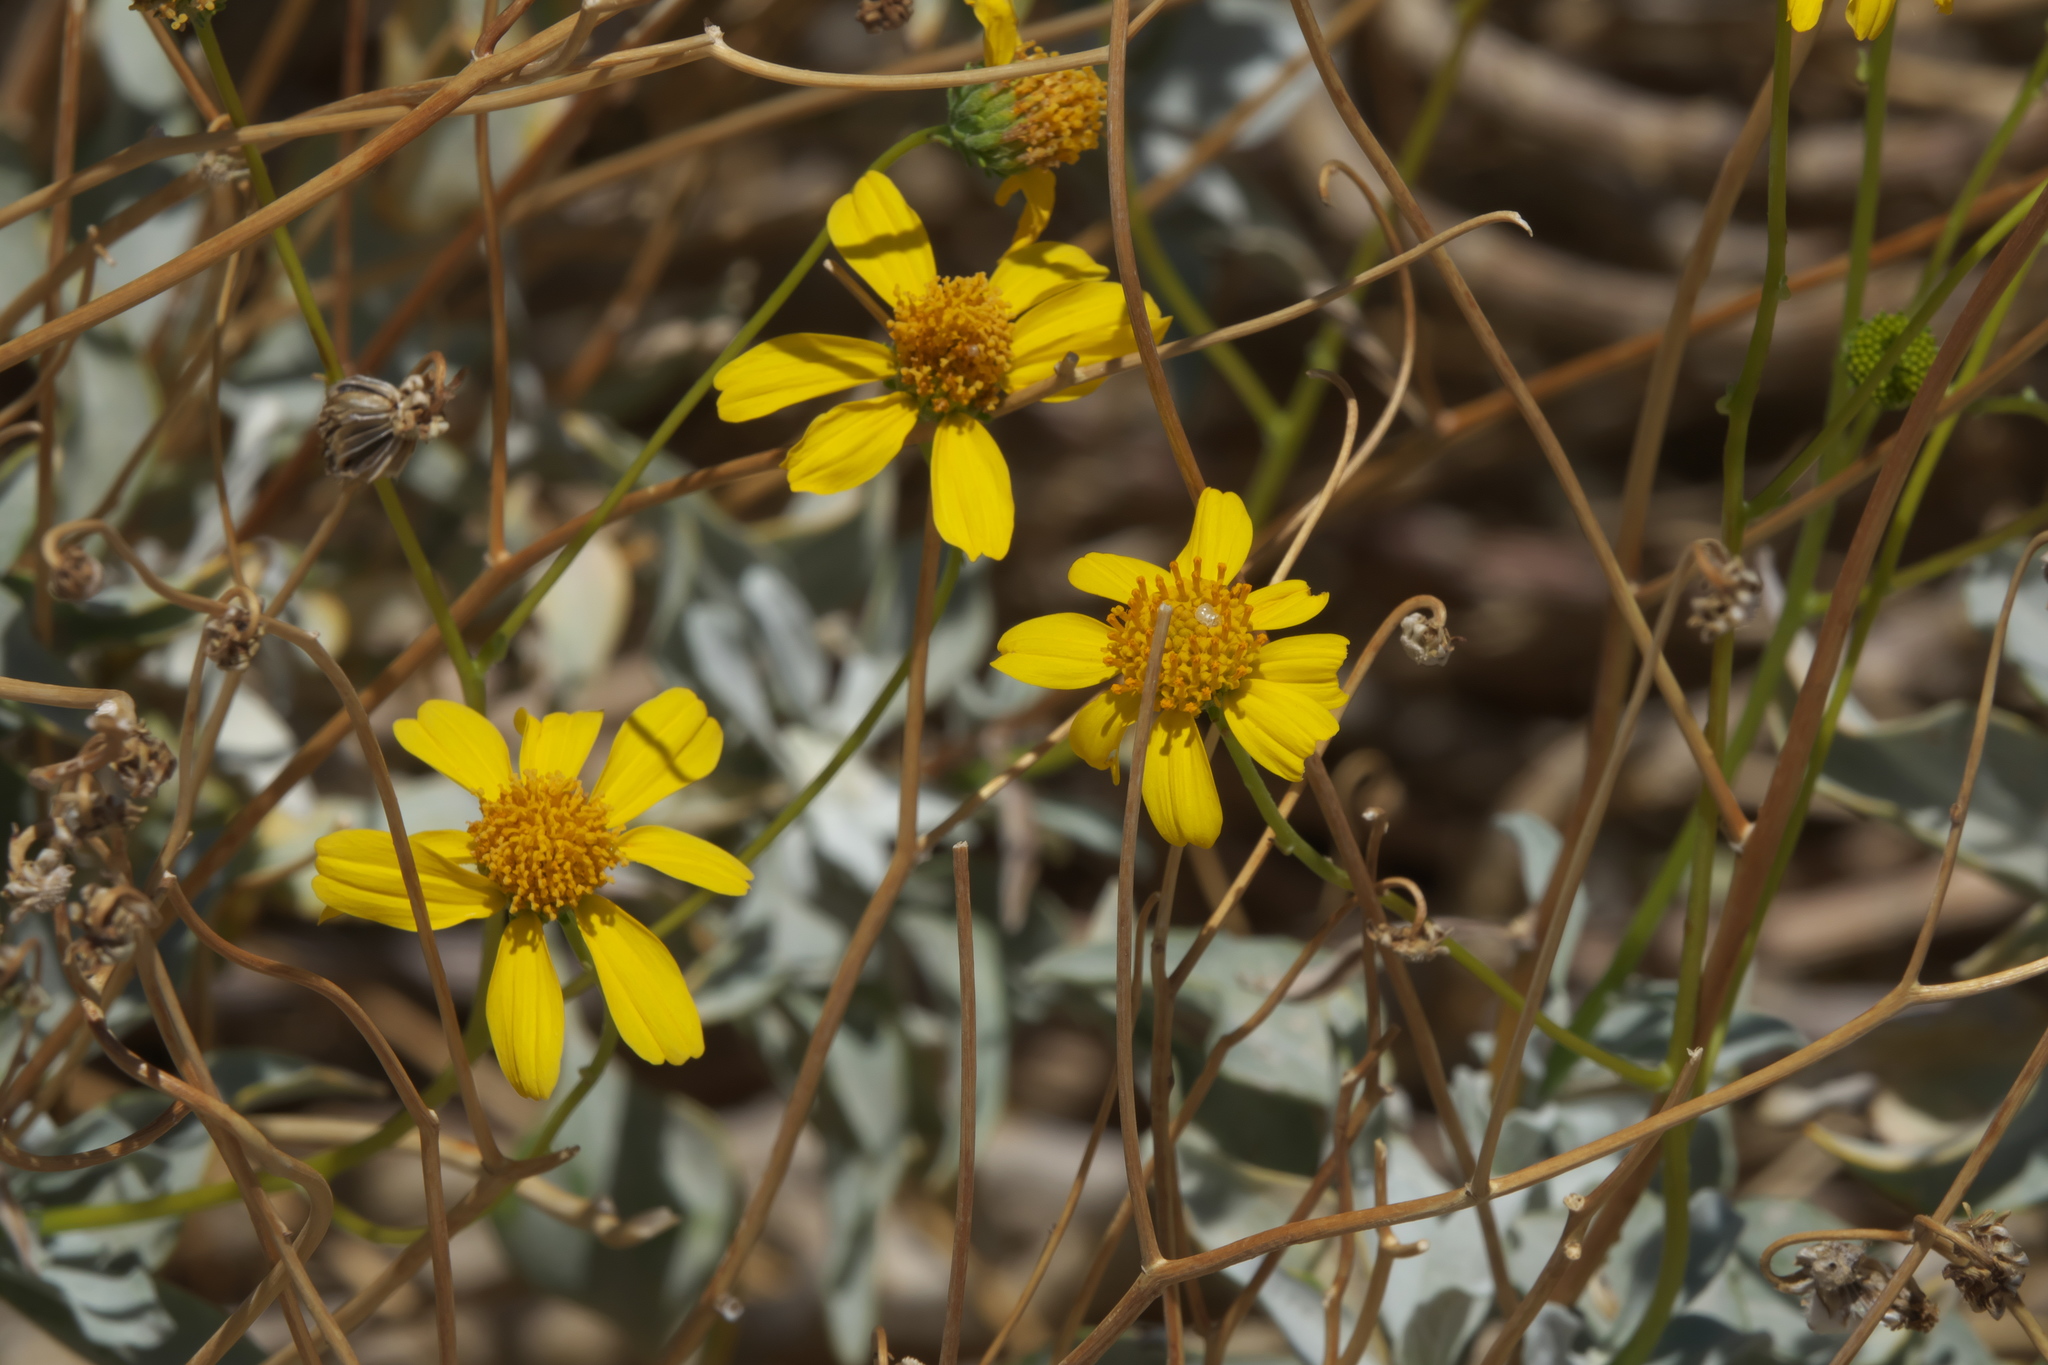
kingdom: Plantae
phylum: Tracheophyta
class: Magnoliopsida
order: Asterales
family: Asteraceae
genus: Encelia
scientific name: Encelia farinosa
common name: Brittlebush
